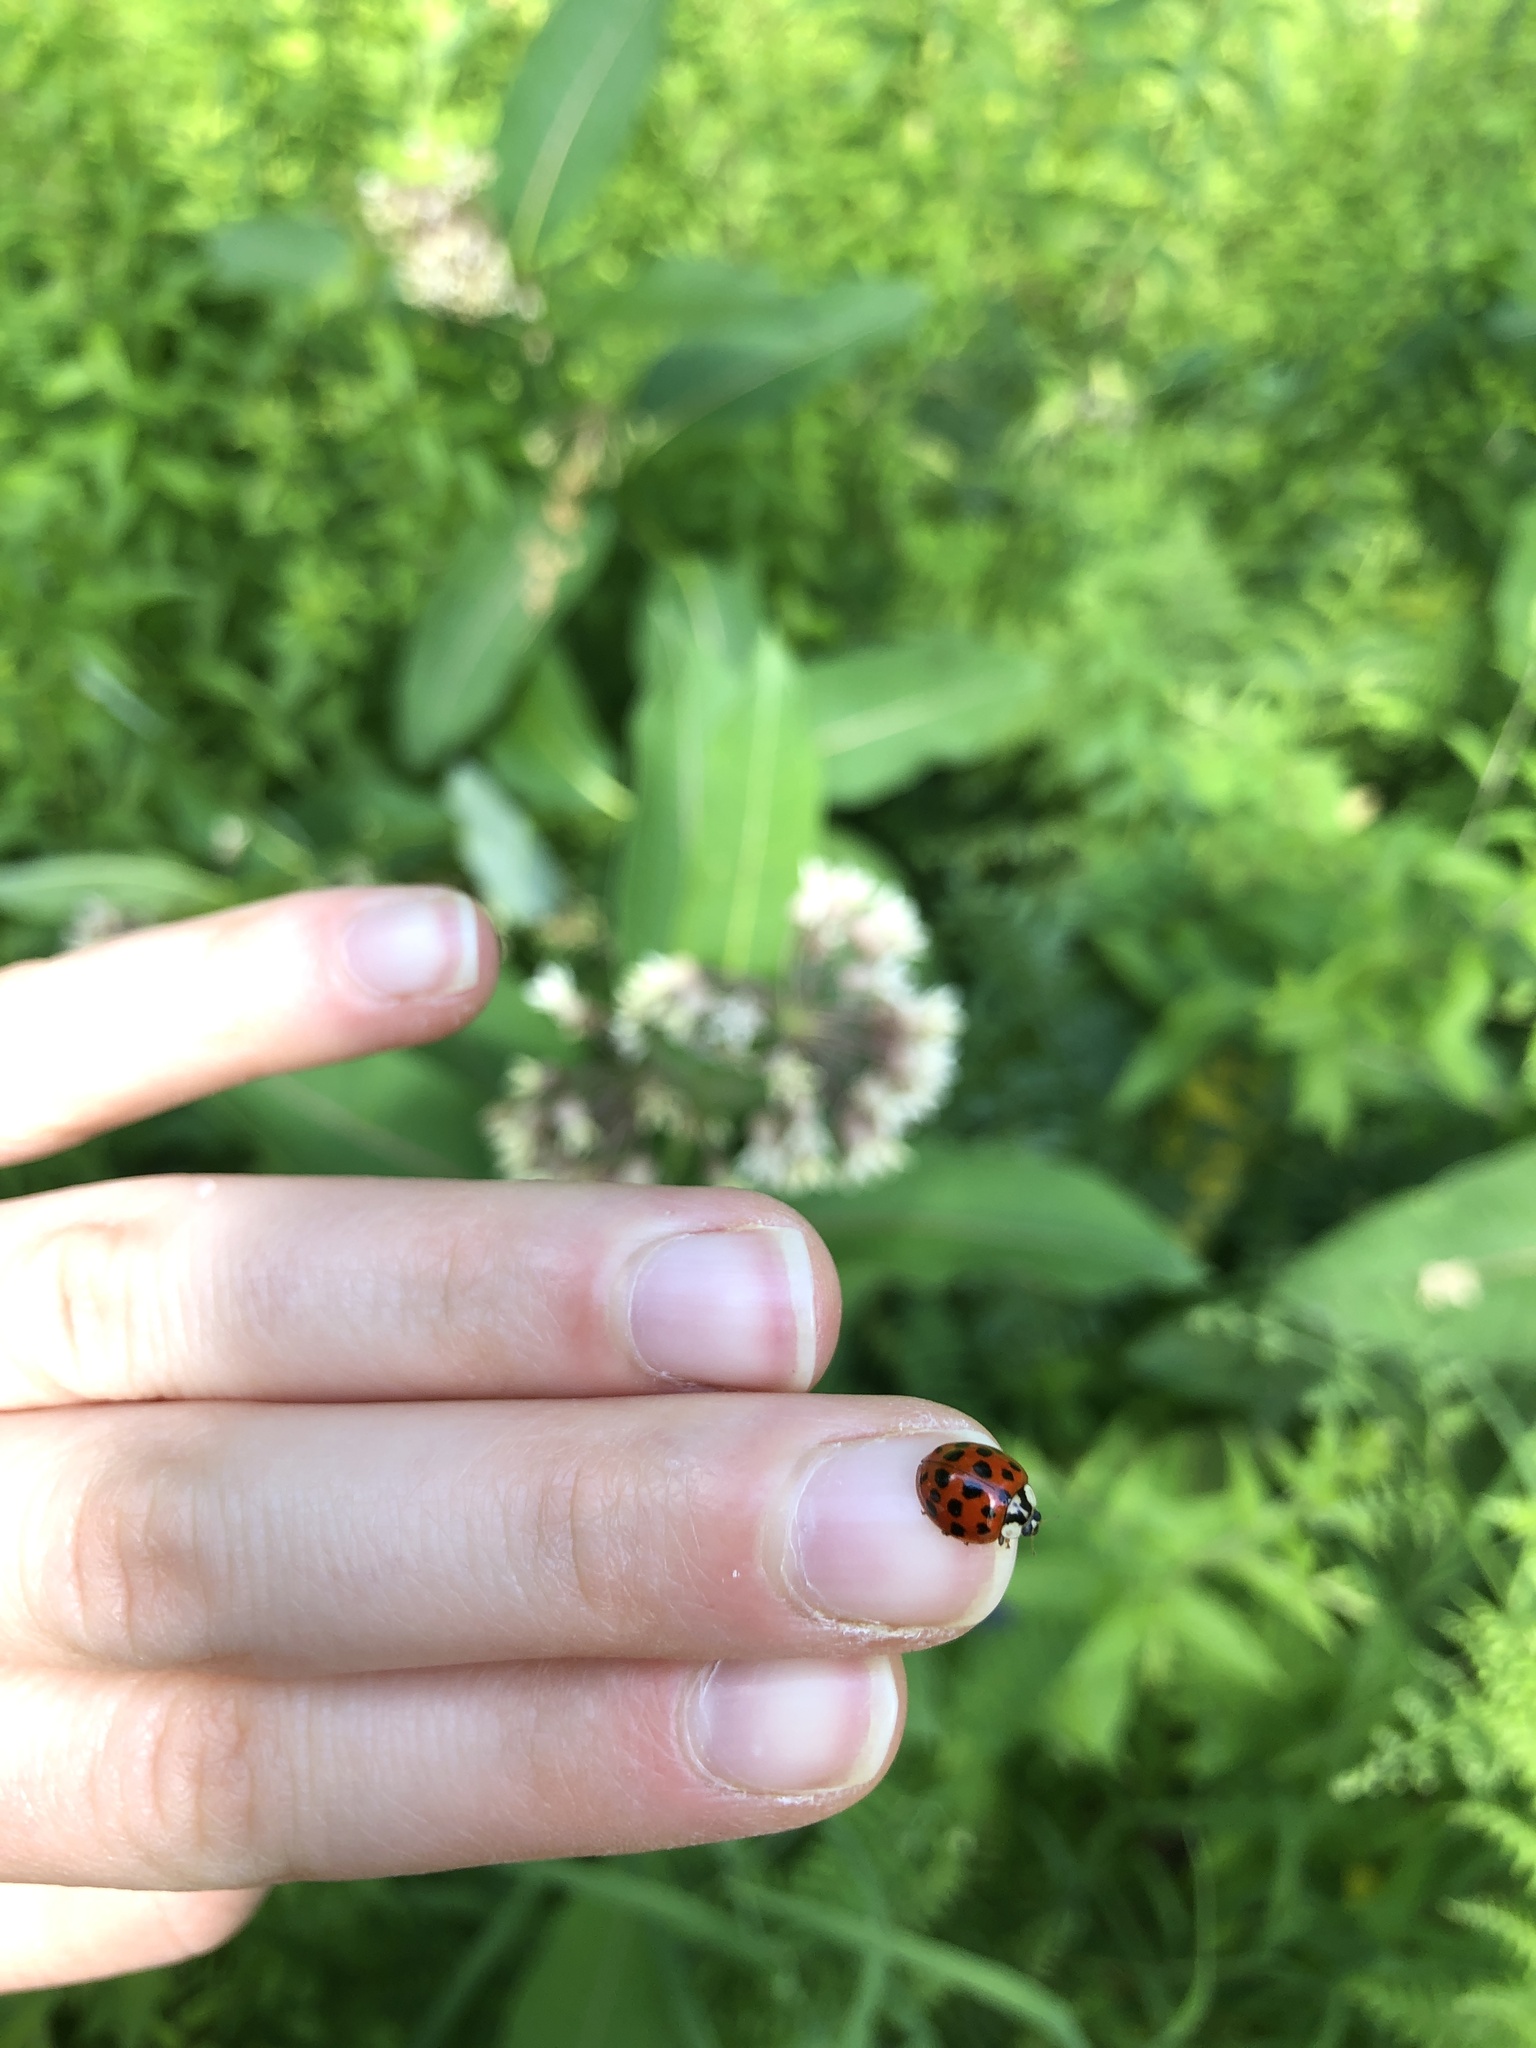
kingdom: Animalia
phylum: Arthropoda
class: Insecta
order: Coleoptera
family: Coccinellidae
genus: Harmonia
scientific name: Harmonia axyridis
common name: Harlequin ladybird
